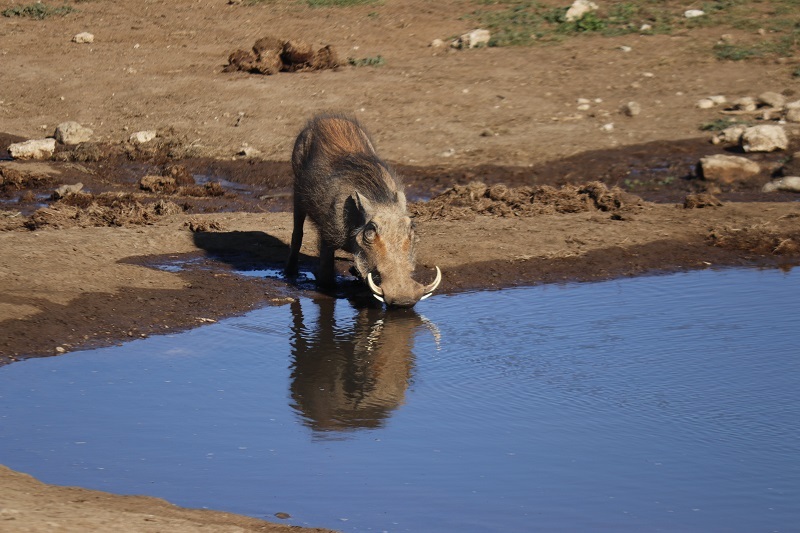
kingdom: Animalia
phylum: Chordata
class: Mammalia
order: Artiodactyla
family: Suidae
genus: Phacochoerus
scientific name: Phacochoerus africanus
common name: Common warthog
